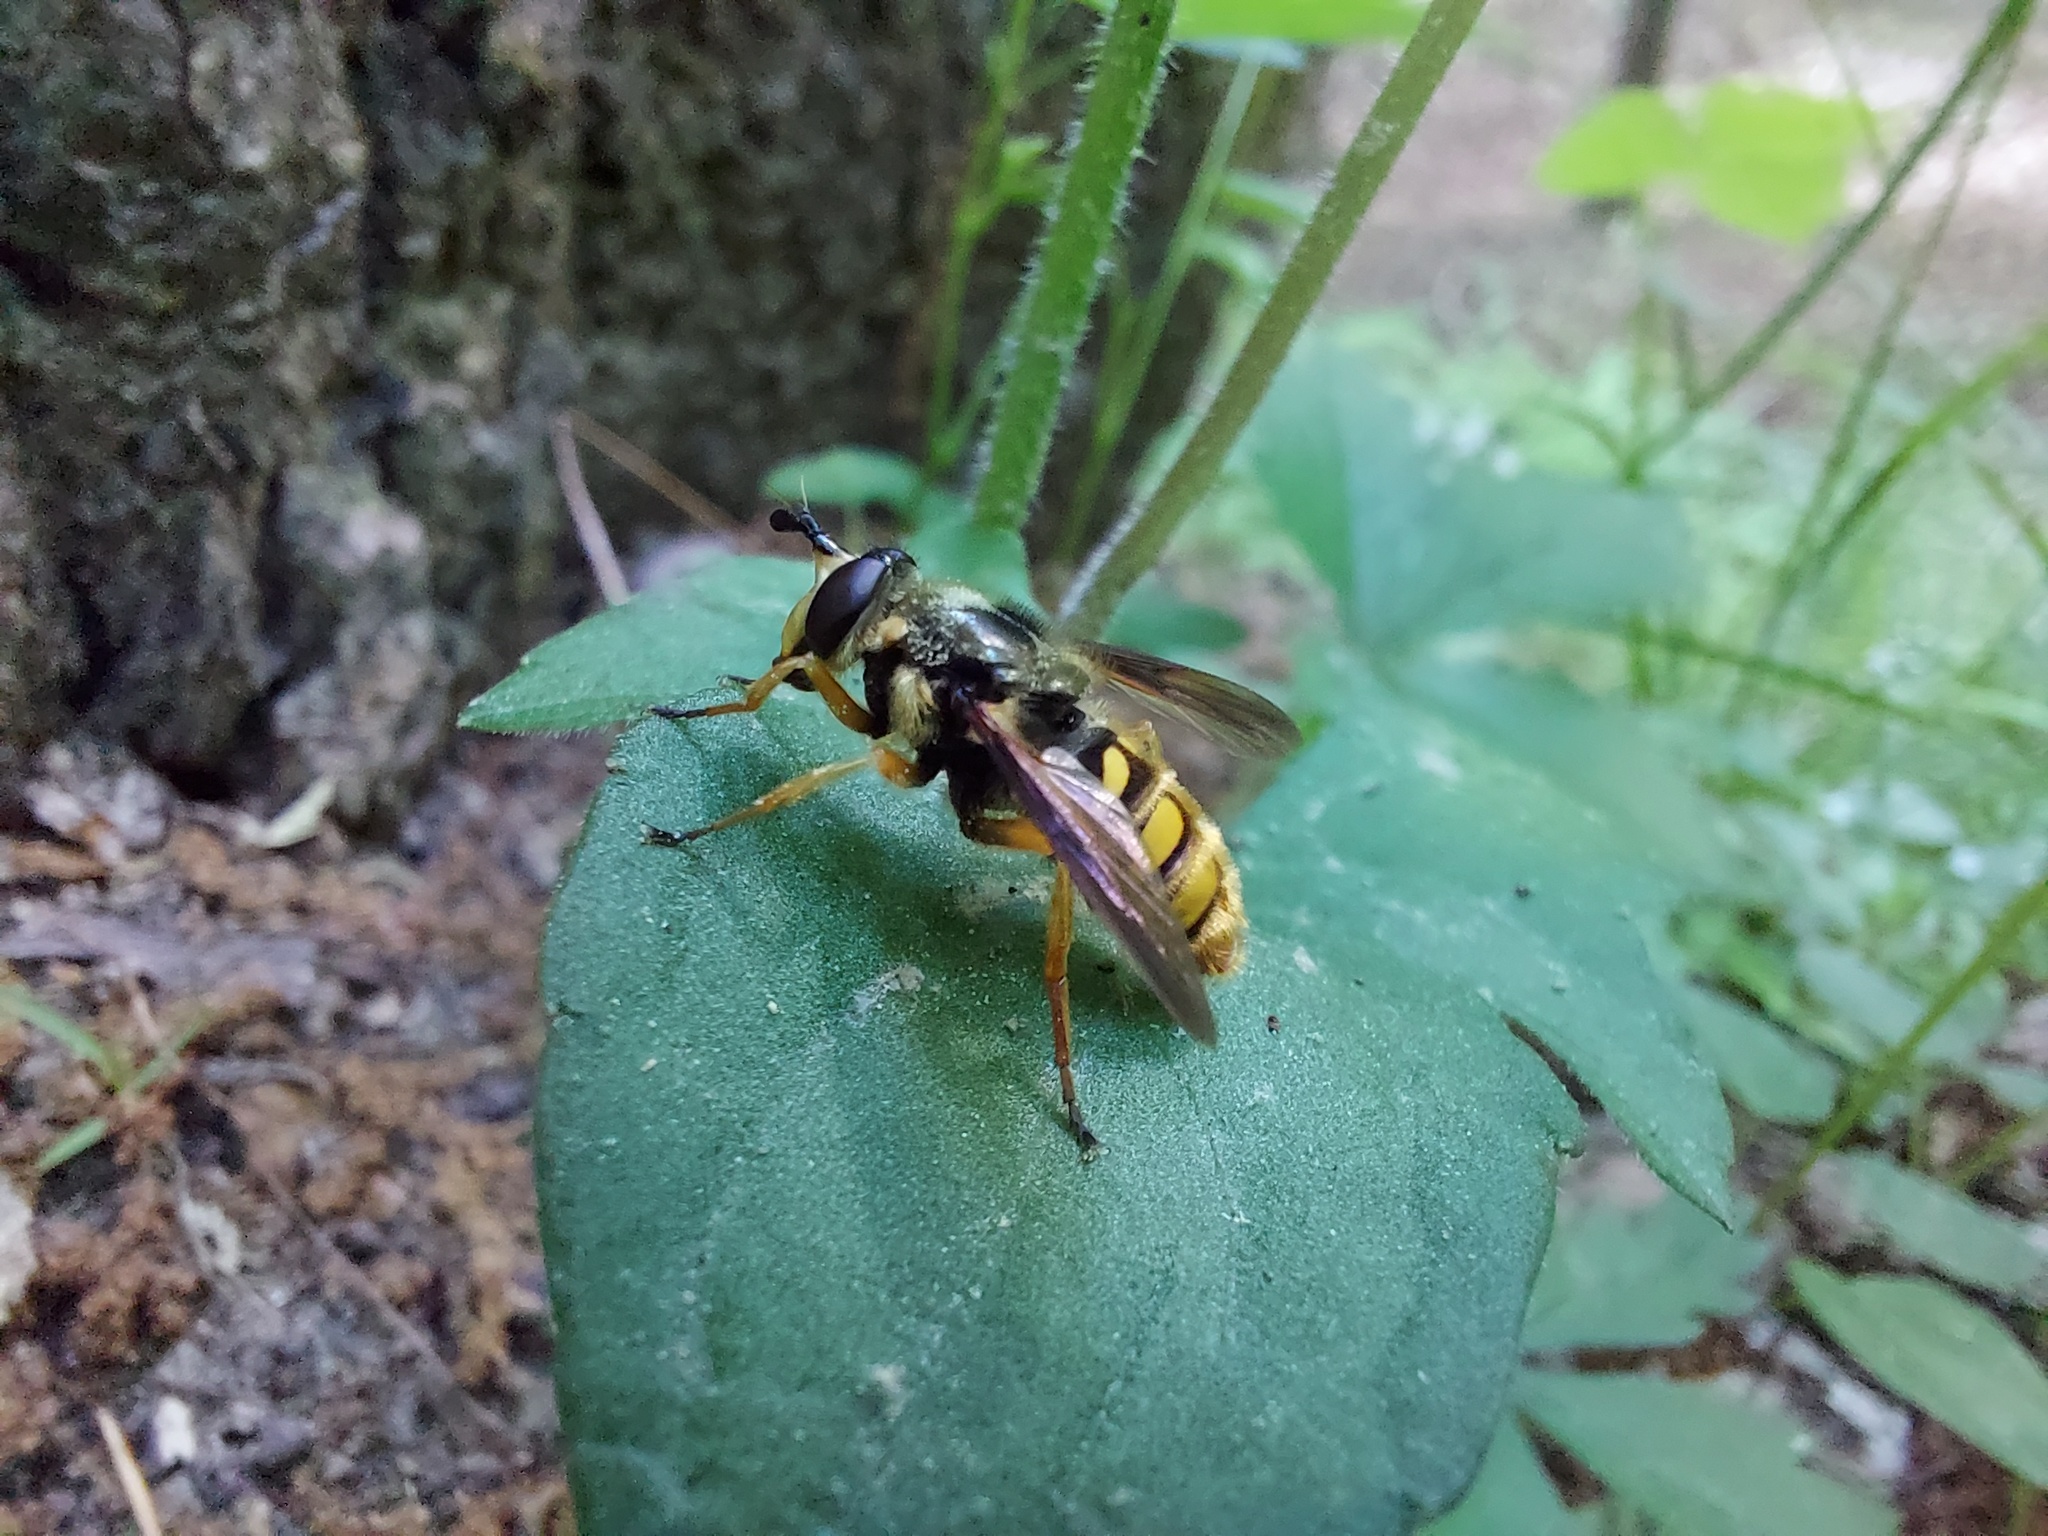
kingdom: Animalia
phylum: Arthropoda
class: Insecta
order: Diptera
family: Syrphidae
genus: Somula
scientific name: Somula decora
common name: Spotted wood fly
